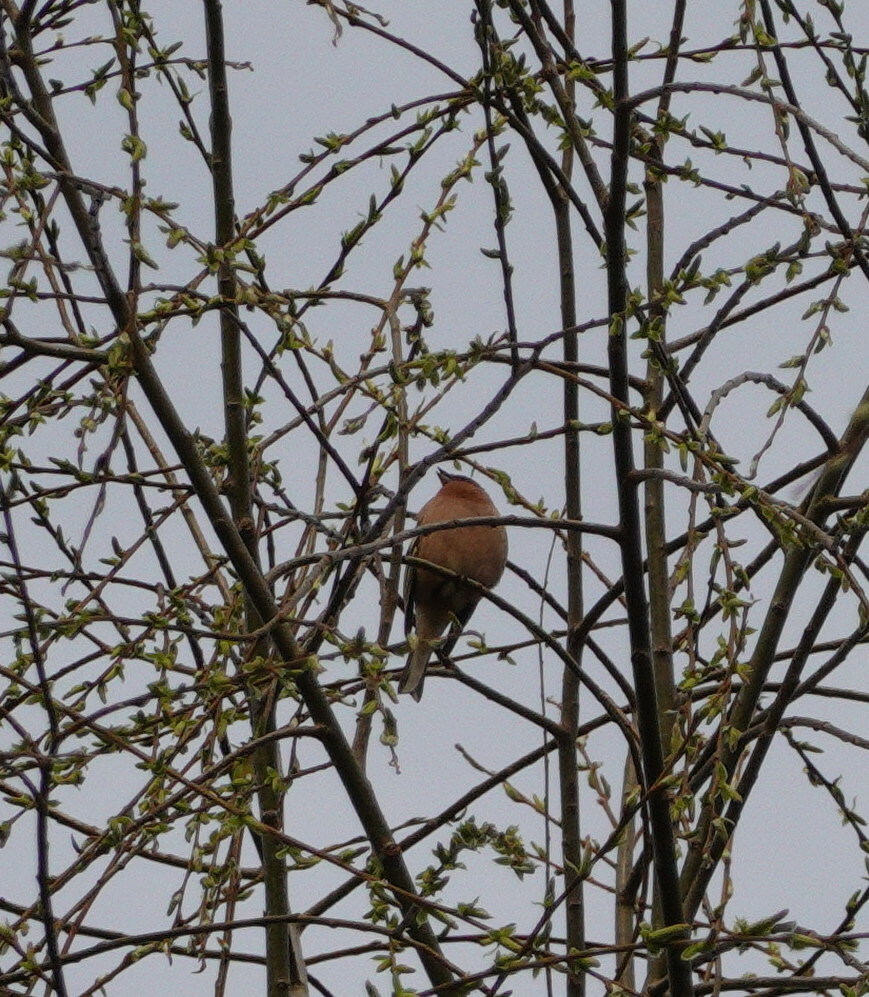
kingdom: Animalia
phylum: Chordata
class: Aves
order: Passeriformes
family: Fringillidae
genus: Fringilla
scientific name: Fringilla coelebs
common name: Common chaffinch
